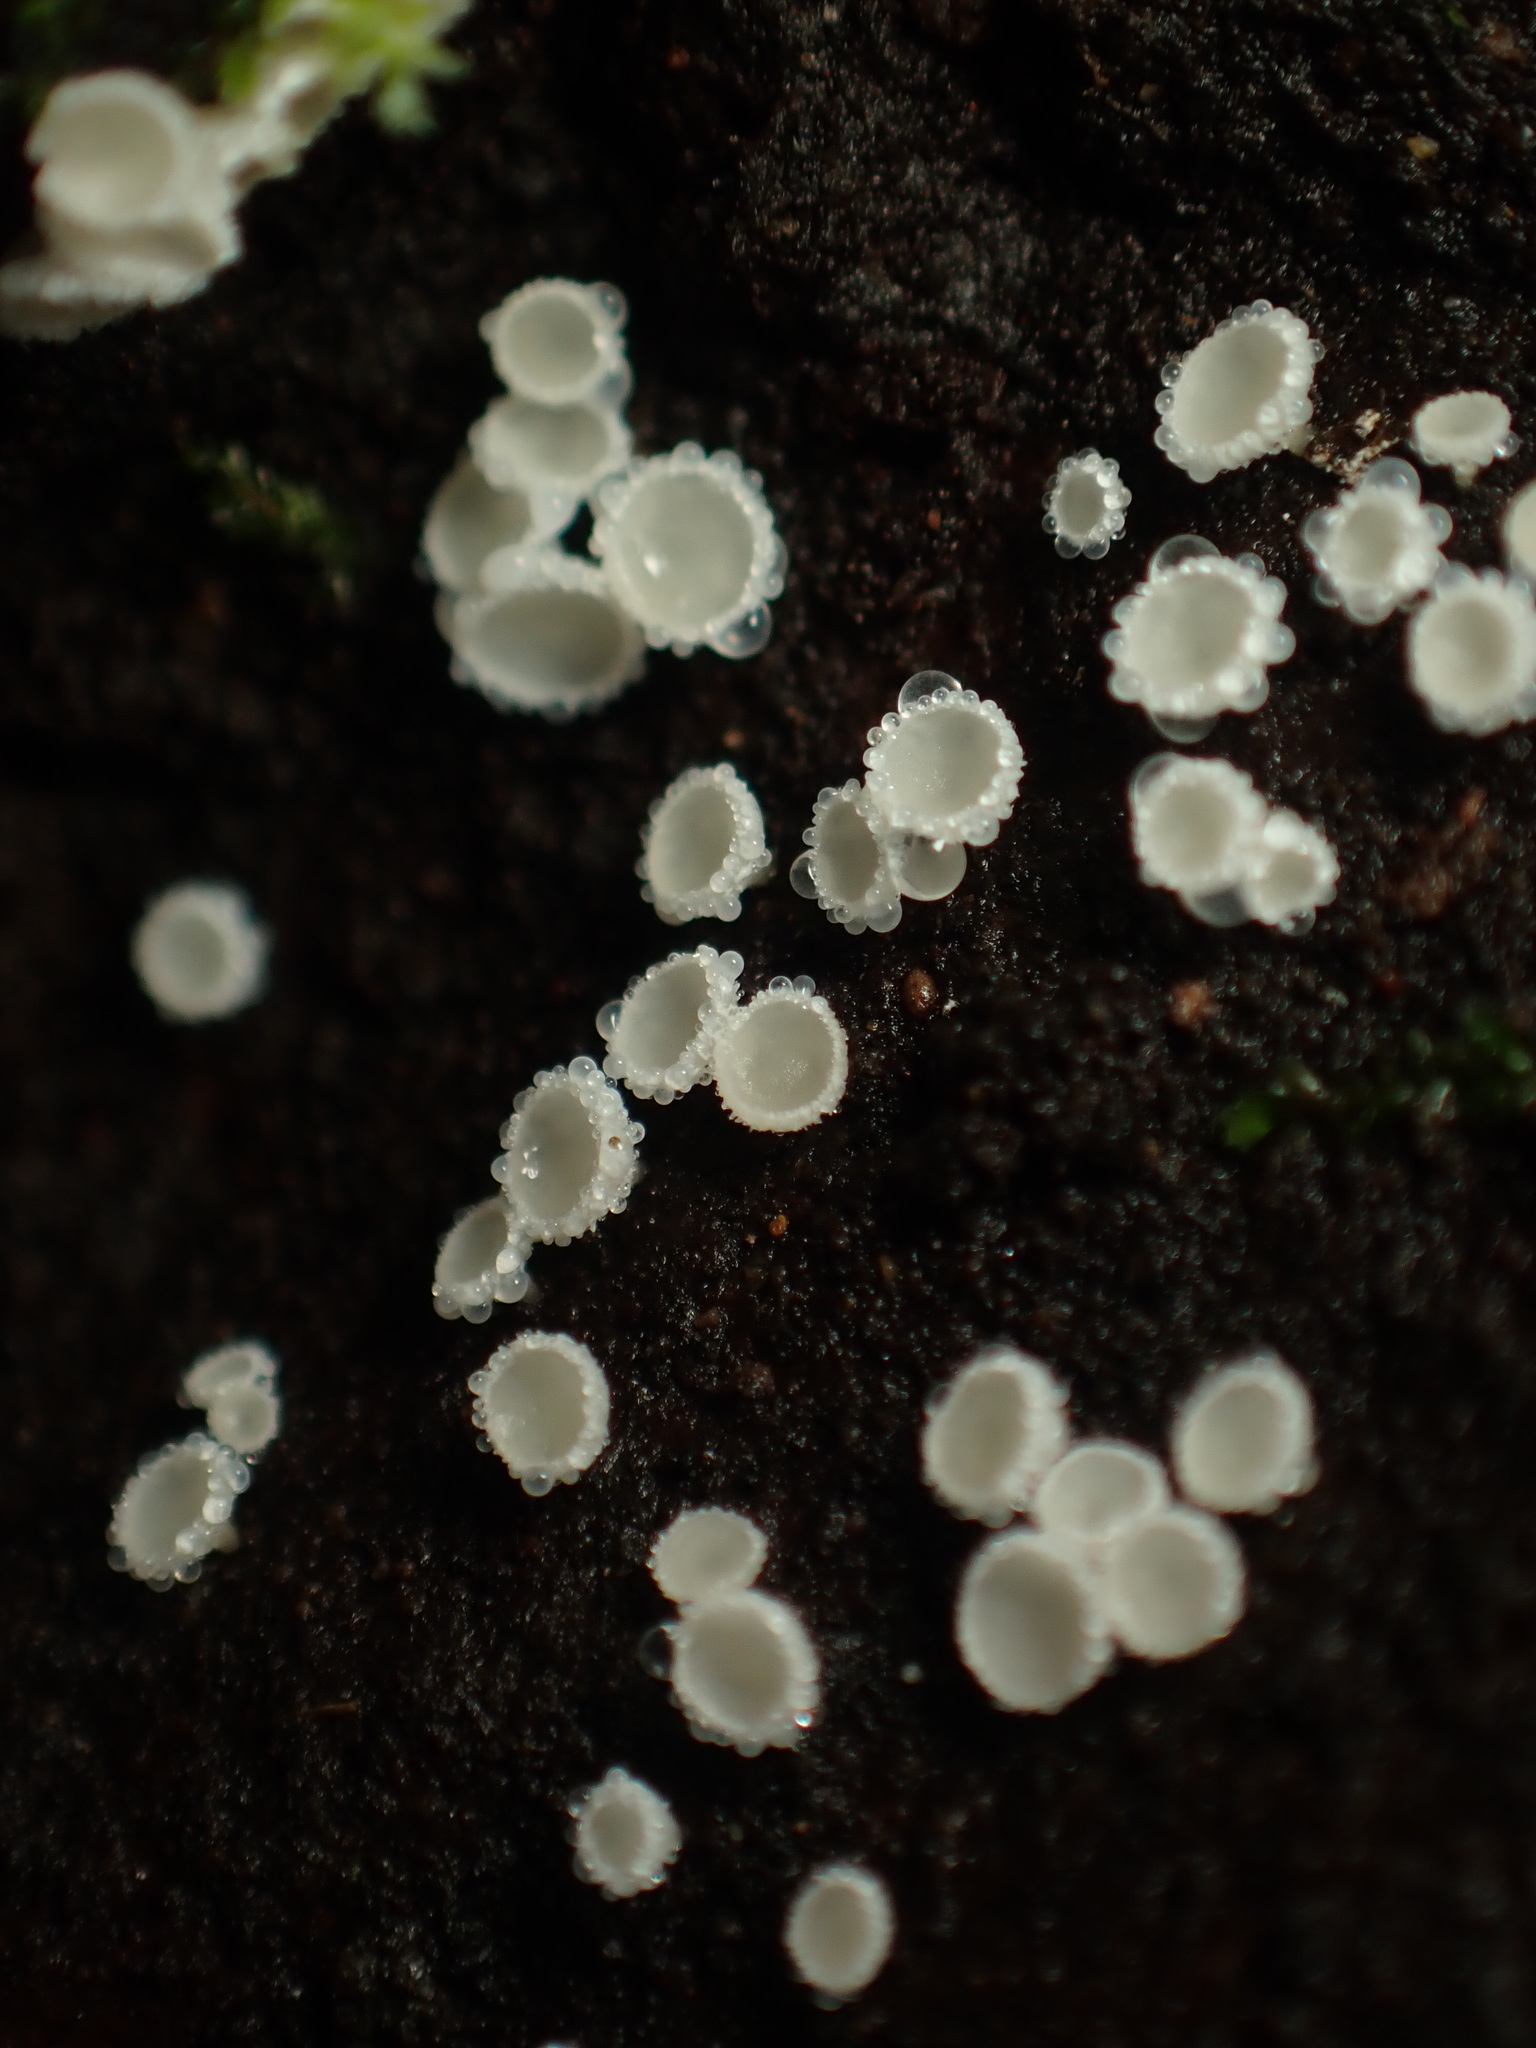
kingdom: Fungi
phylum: Ascomycota
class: Leotiomycetes
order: Helotiales
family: Lachnaceae
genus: Lachnum
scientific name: Lachnum virgineum
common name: Snowy disco
